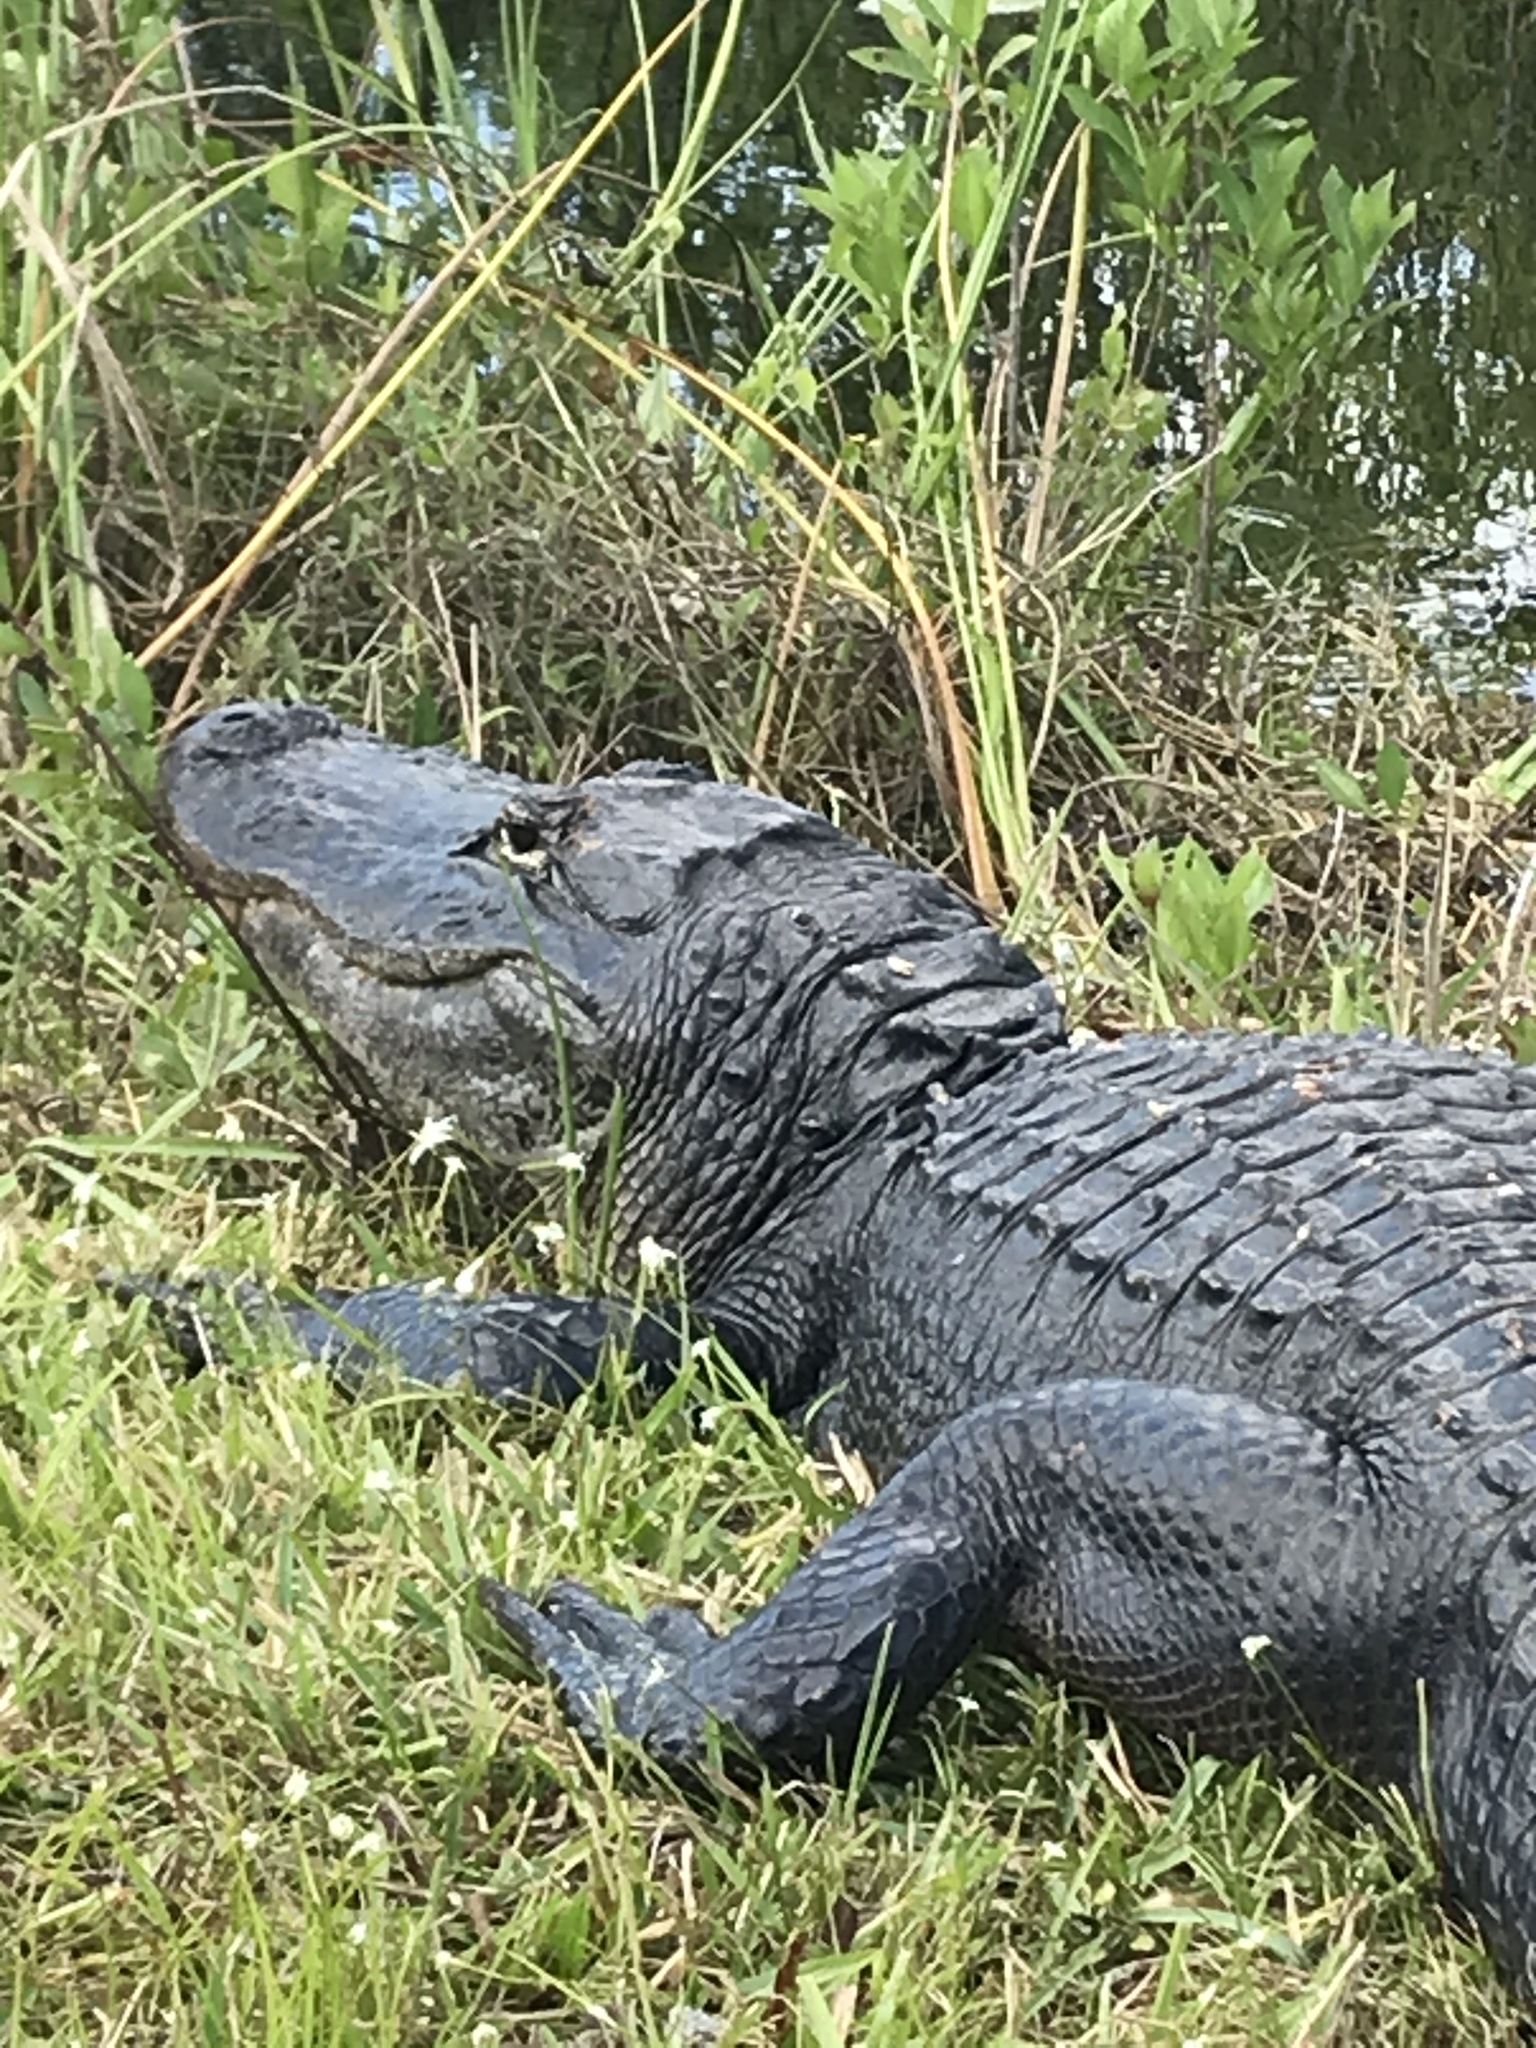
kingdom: Animalia
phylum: Chordata
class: Crocodylia
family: Alligatoridae
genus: Alligator
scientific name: Alligator mississippiensis
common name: American alligator
